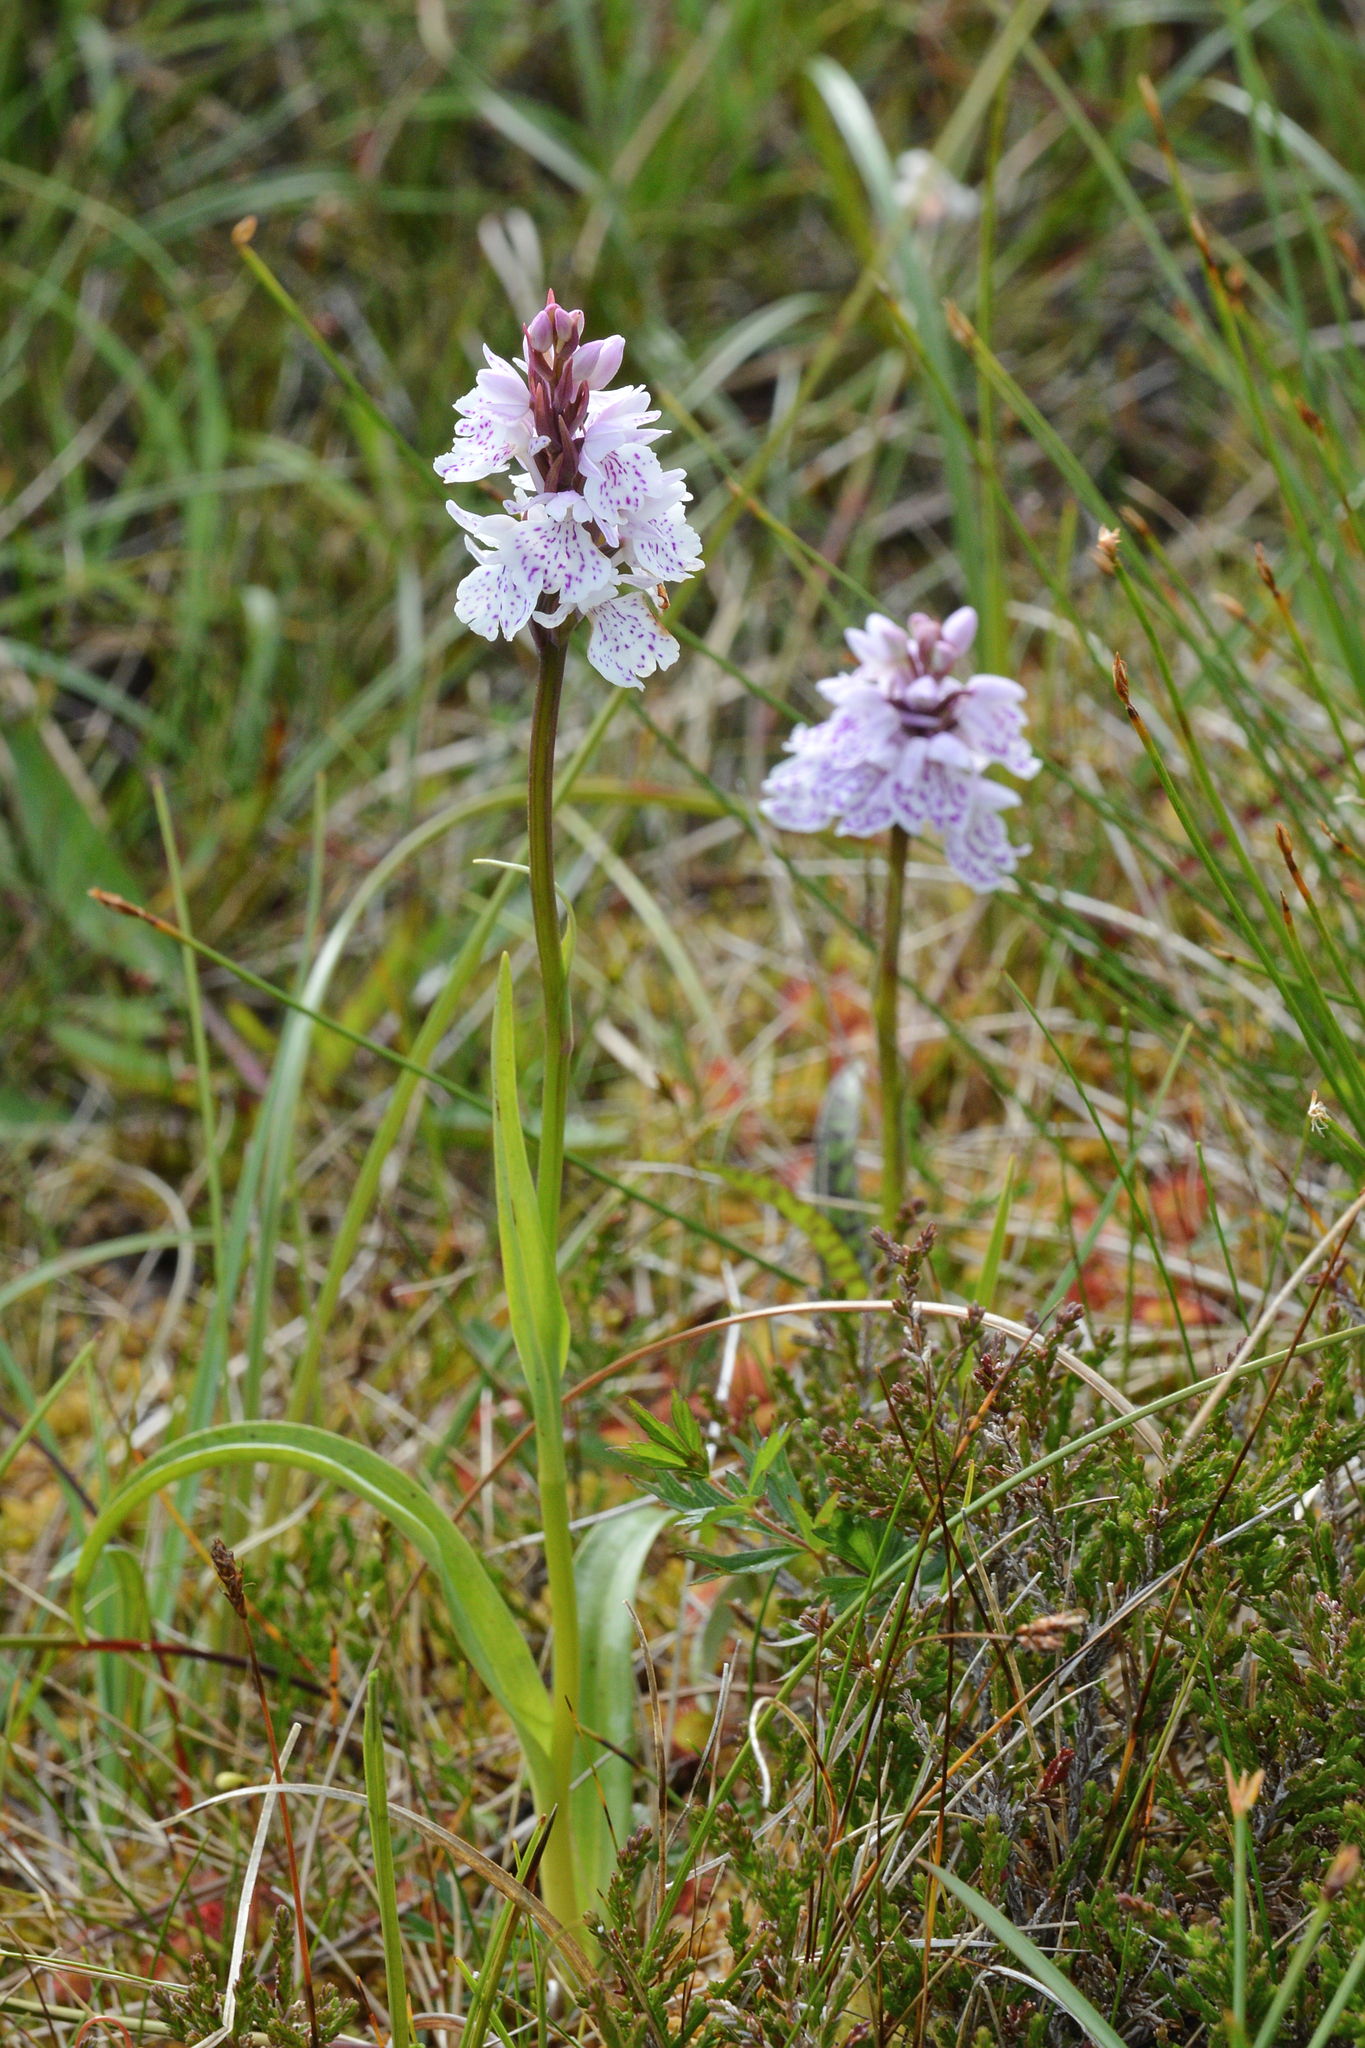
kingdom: Plantae
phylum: Tracheophyta
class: Liliopsida
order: Asparagales
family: Orchidaceae
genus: Dactylorhiza
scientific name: Dactylorhiza maculata
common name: Heath spotted-orchid
